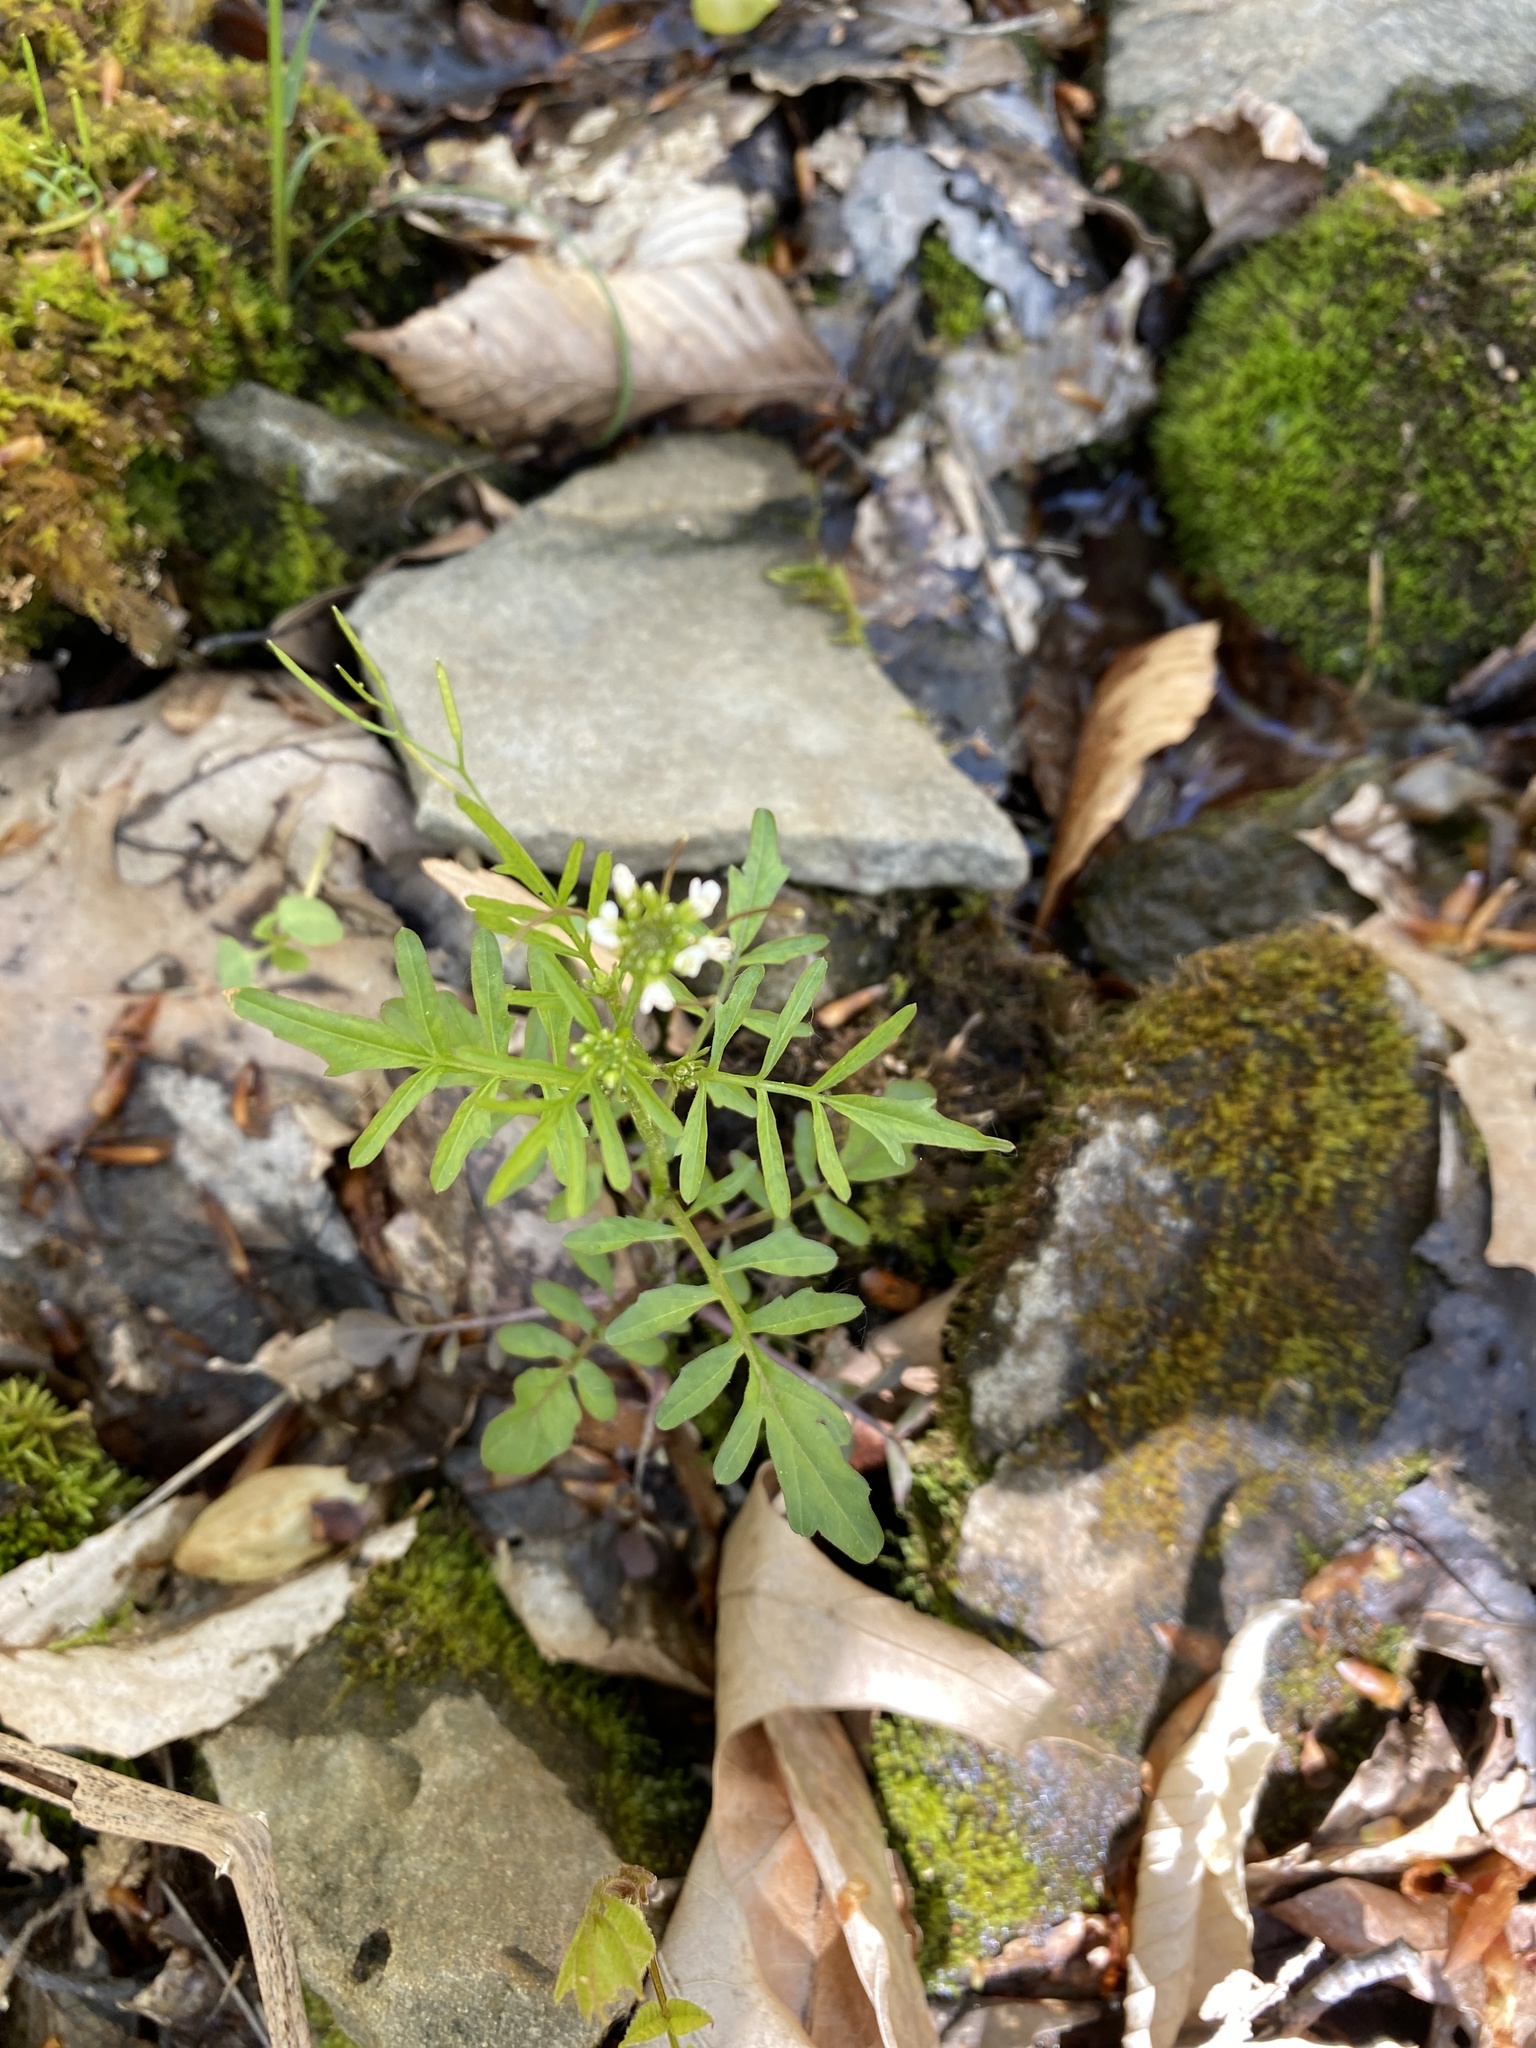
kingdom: Plantae
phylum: Tracheophyta
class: Magnoliopsida
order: Brassicales
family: Brassicaceae
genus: Cardamine
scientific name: Cardamine pensylvanica
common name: Pennsylvania bittercress
